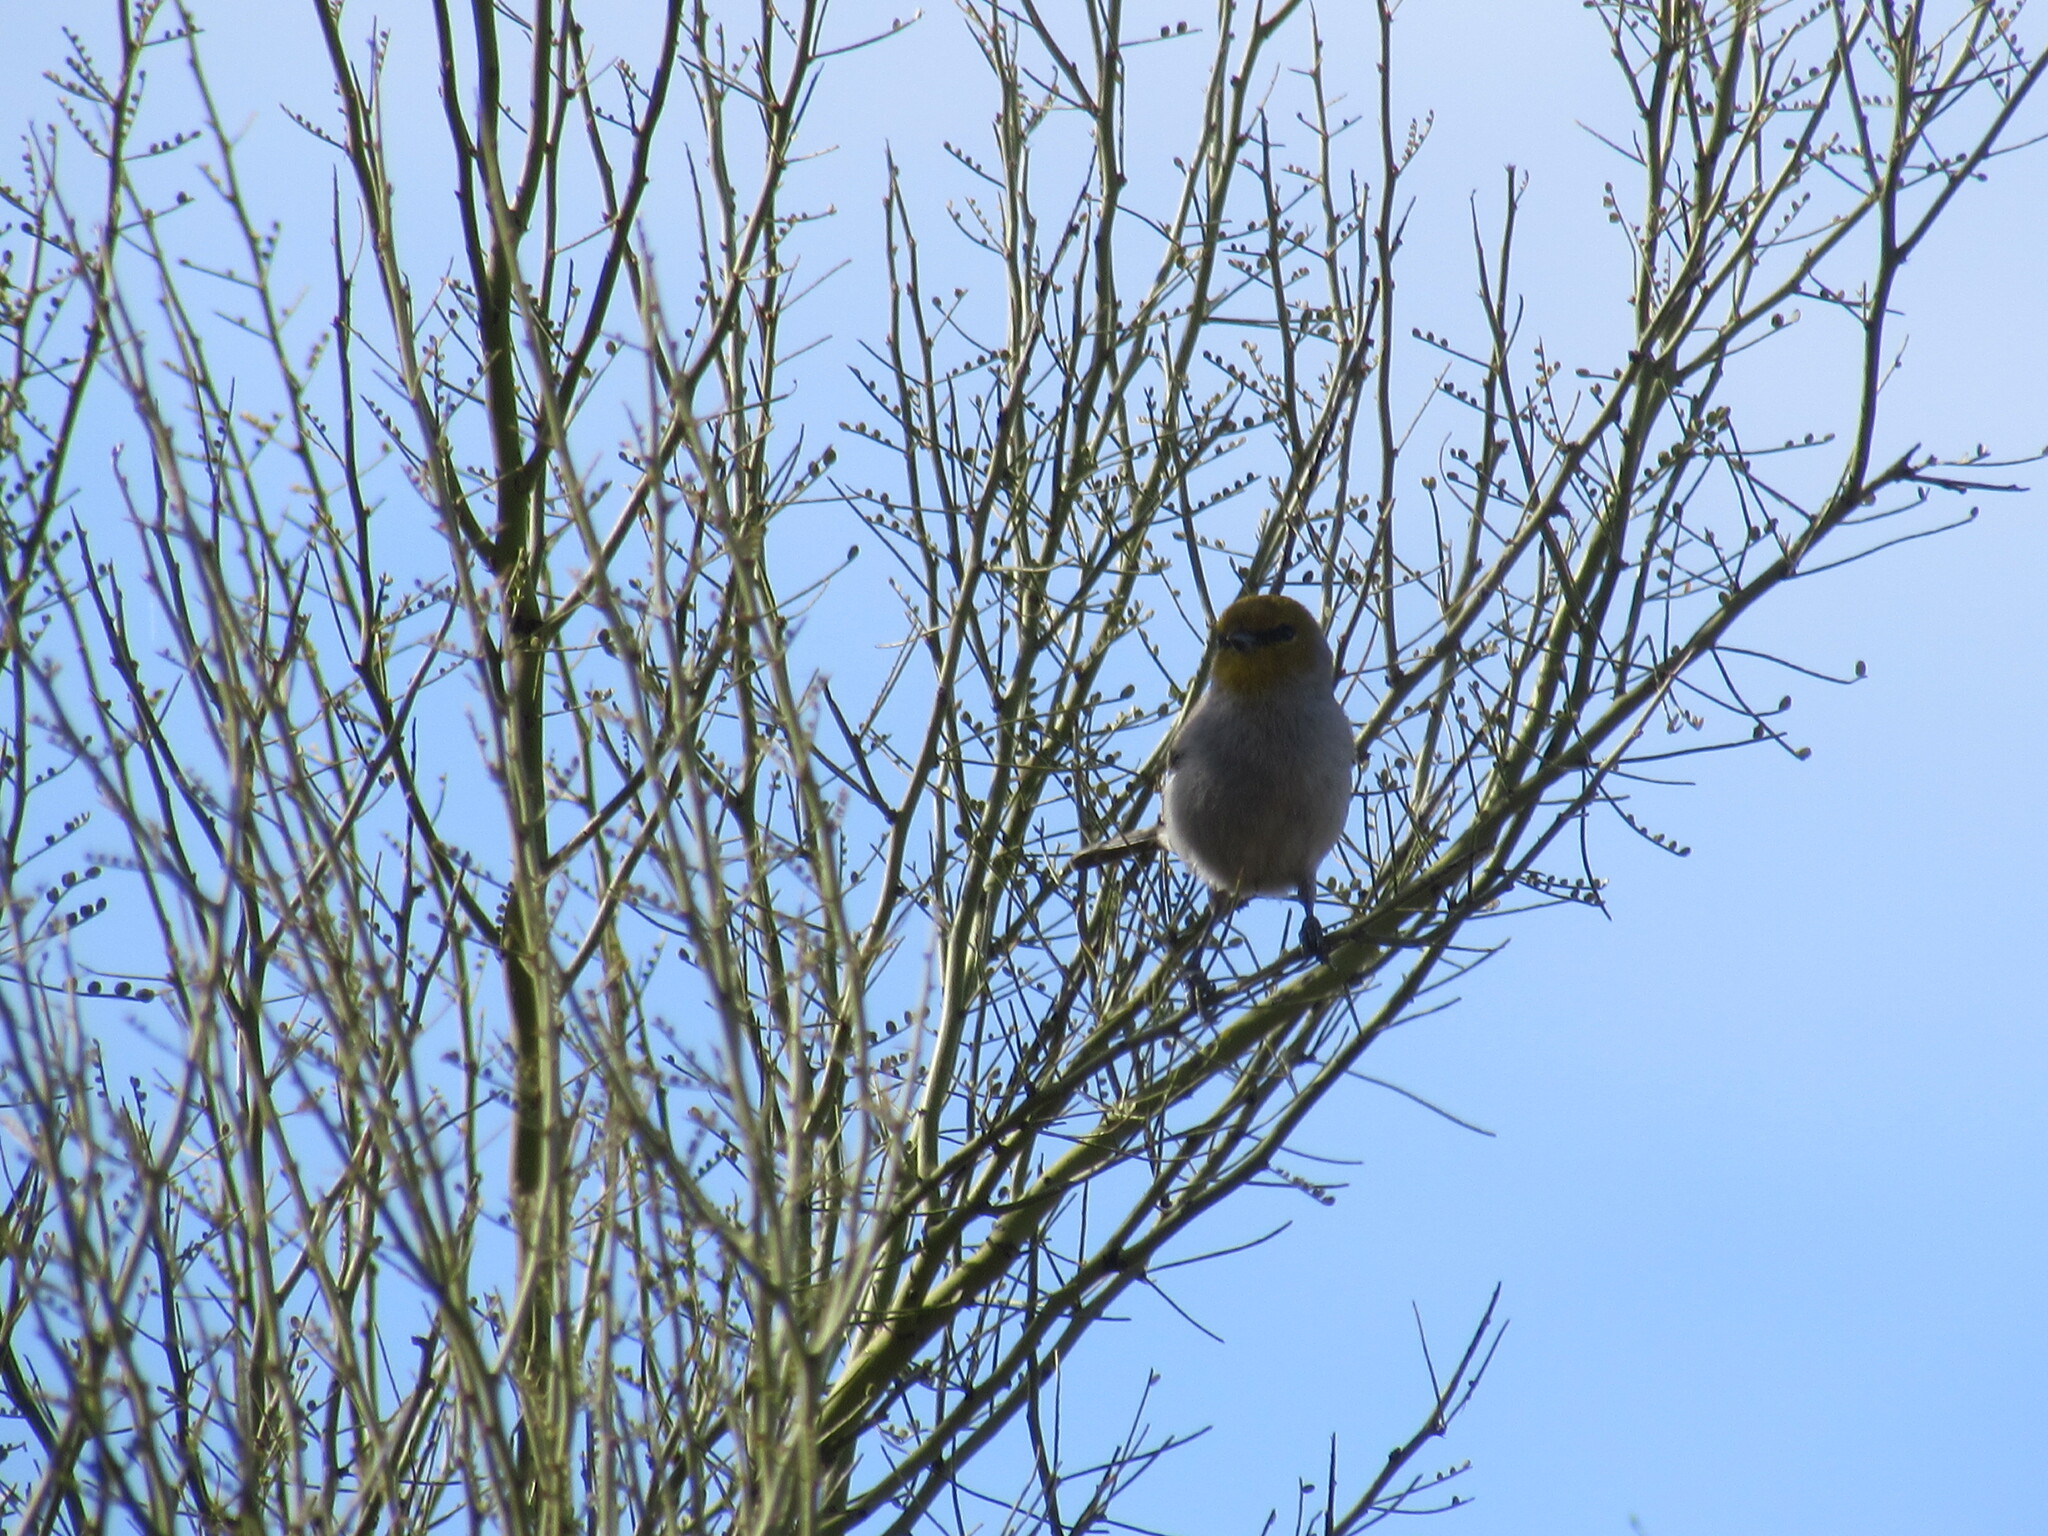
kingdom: Animalia
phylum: Chordata
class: Aves
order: Passeriformes
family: Remizidae
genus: Auriparus
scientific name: Auriparus flaviceps
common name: Verdin
